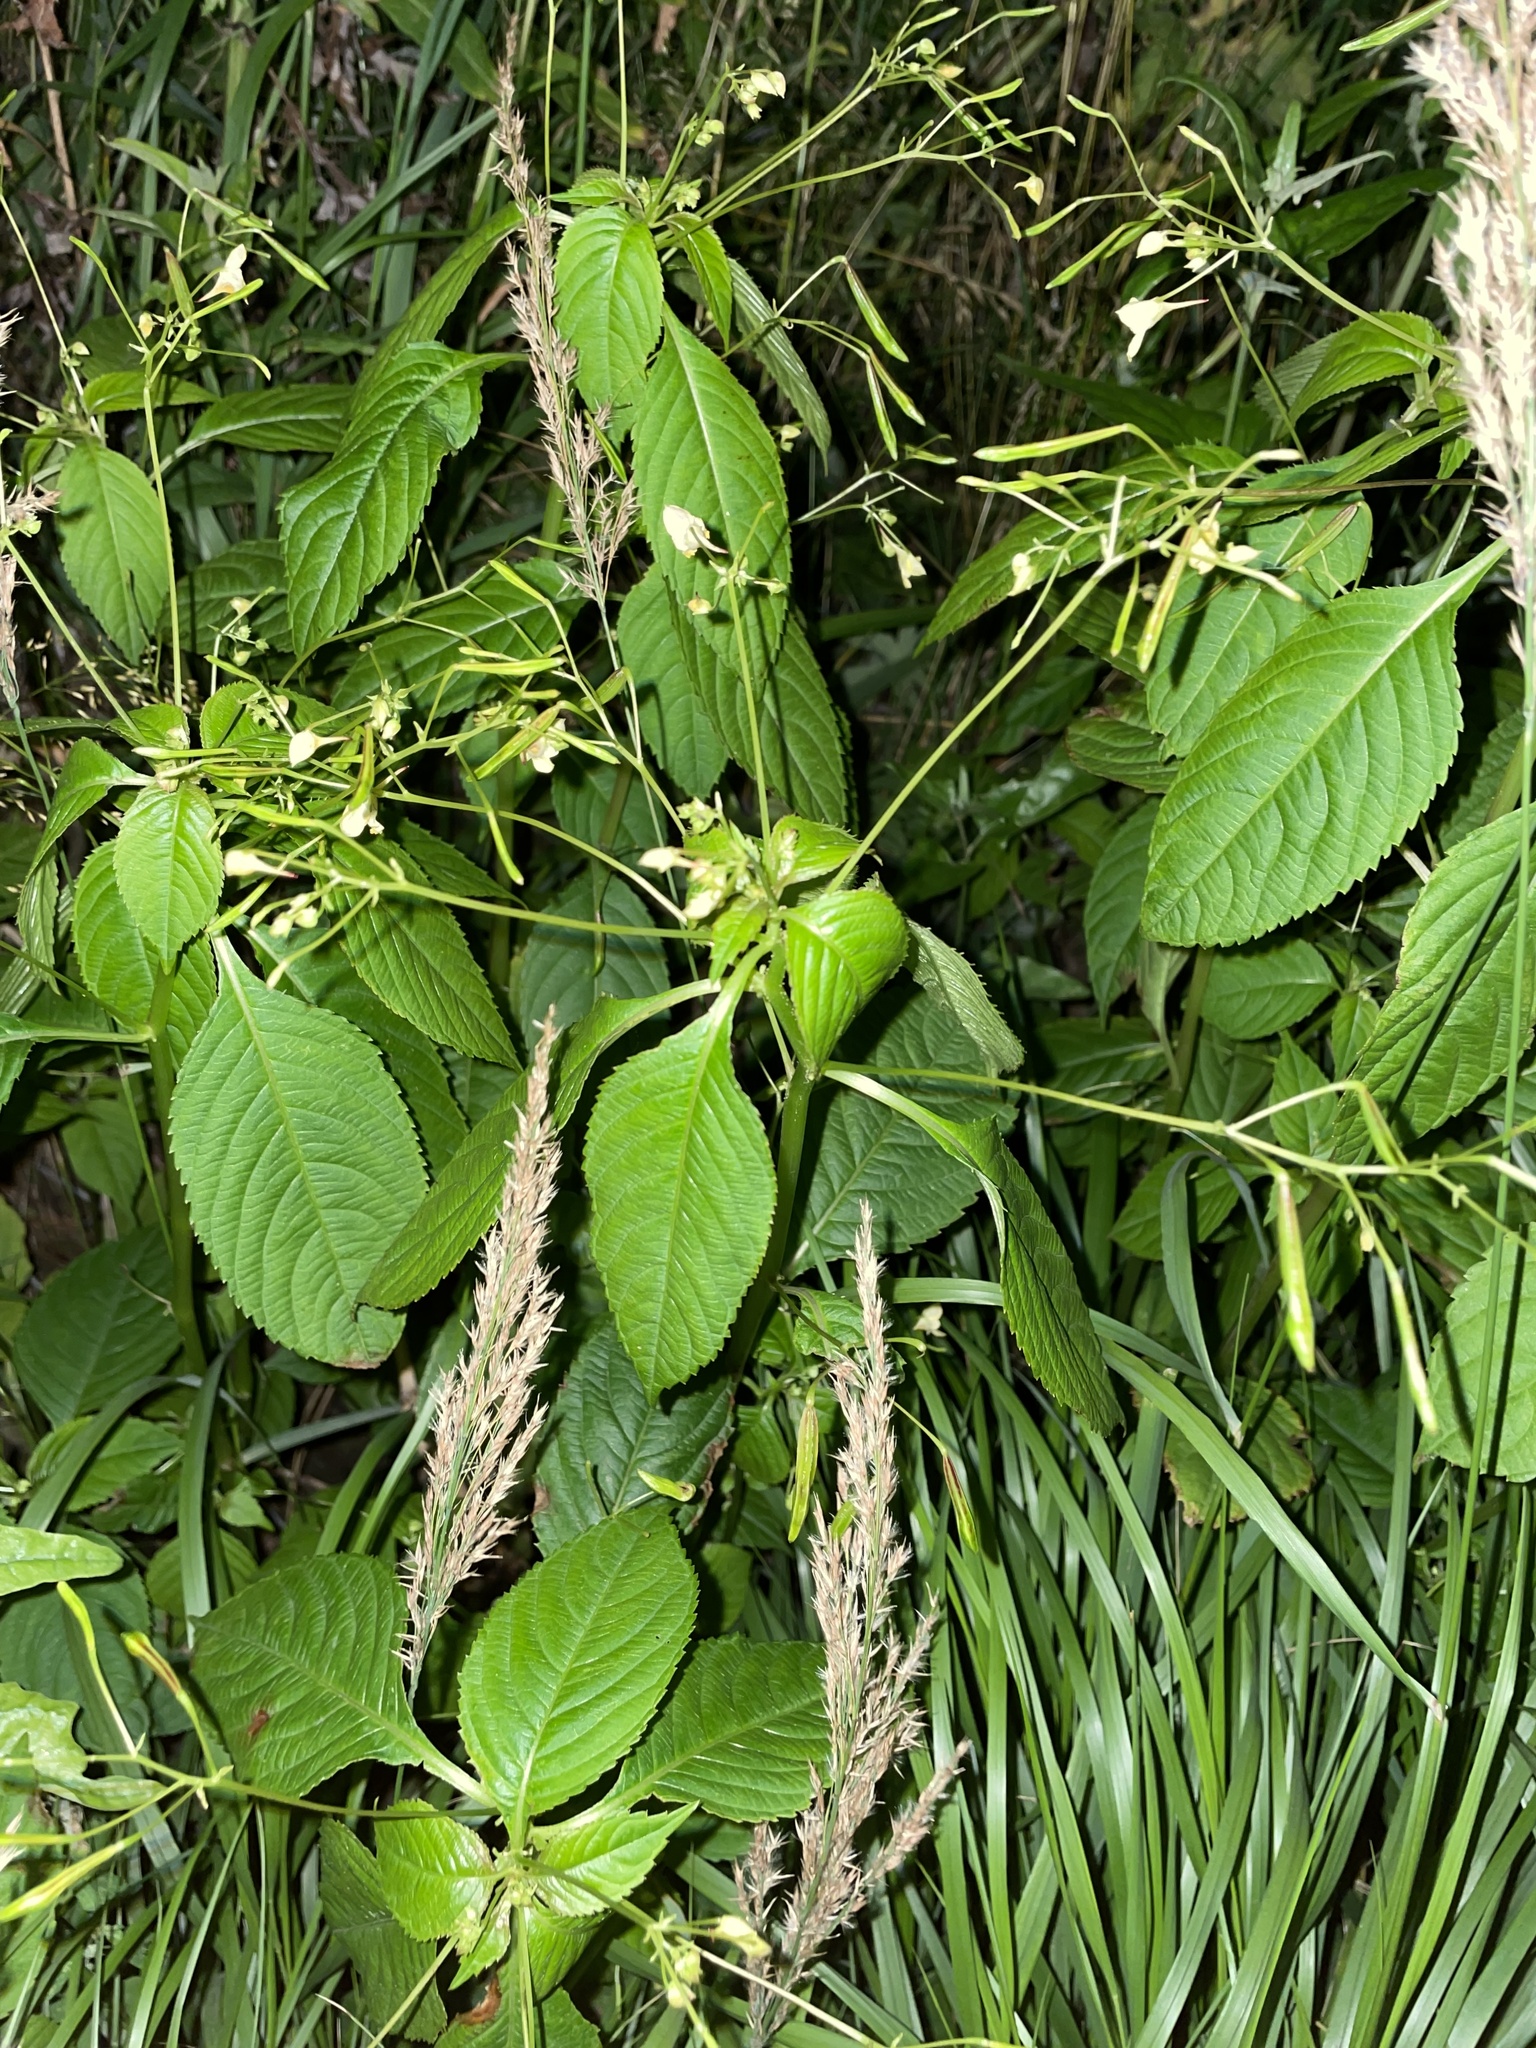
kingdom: Plantae
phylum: Tracheophyta
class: Magnoliopsida
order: Ericales
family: Balsaminaceae
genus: Impatiens
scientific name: Impatiens parviflora
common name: Small balsam
